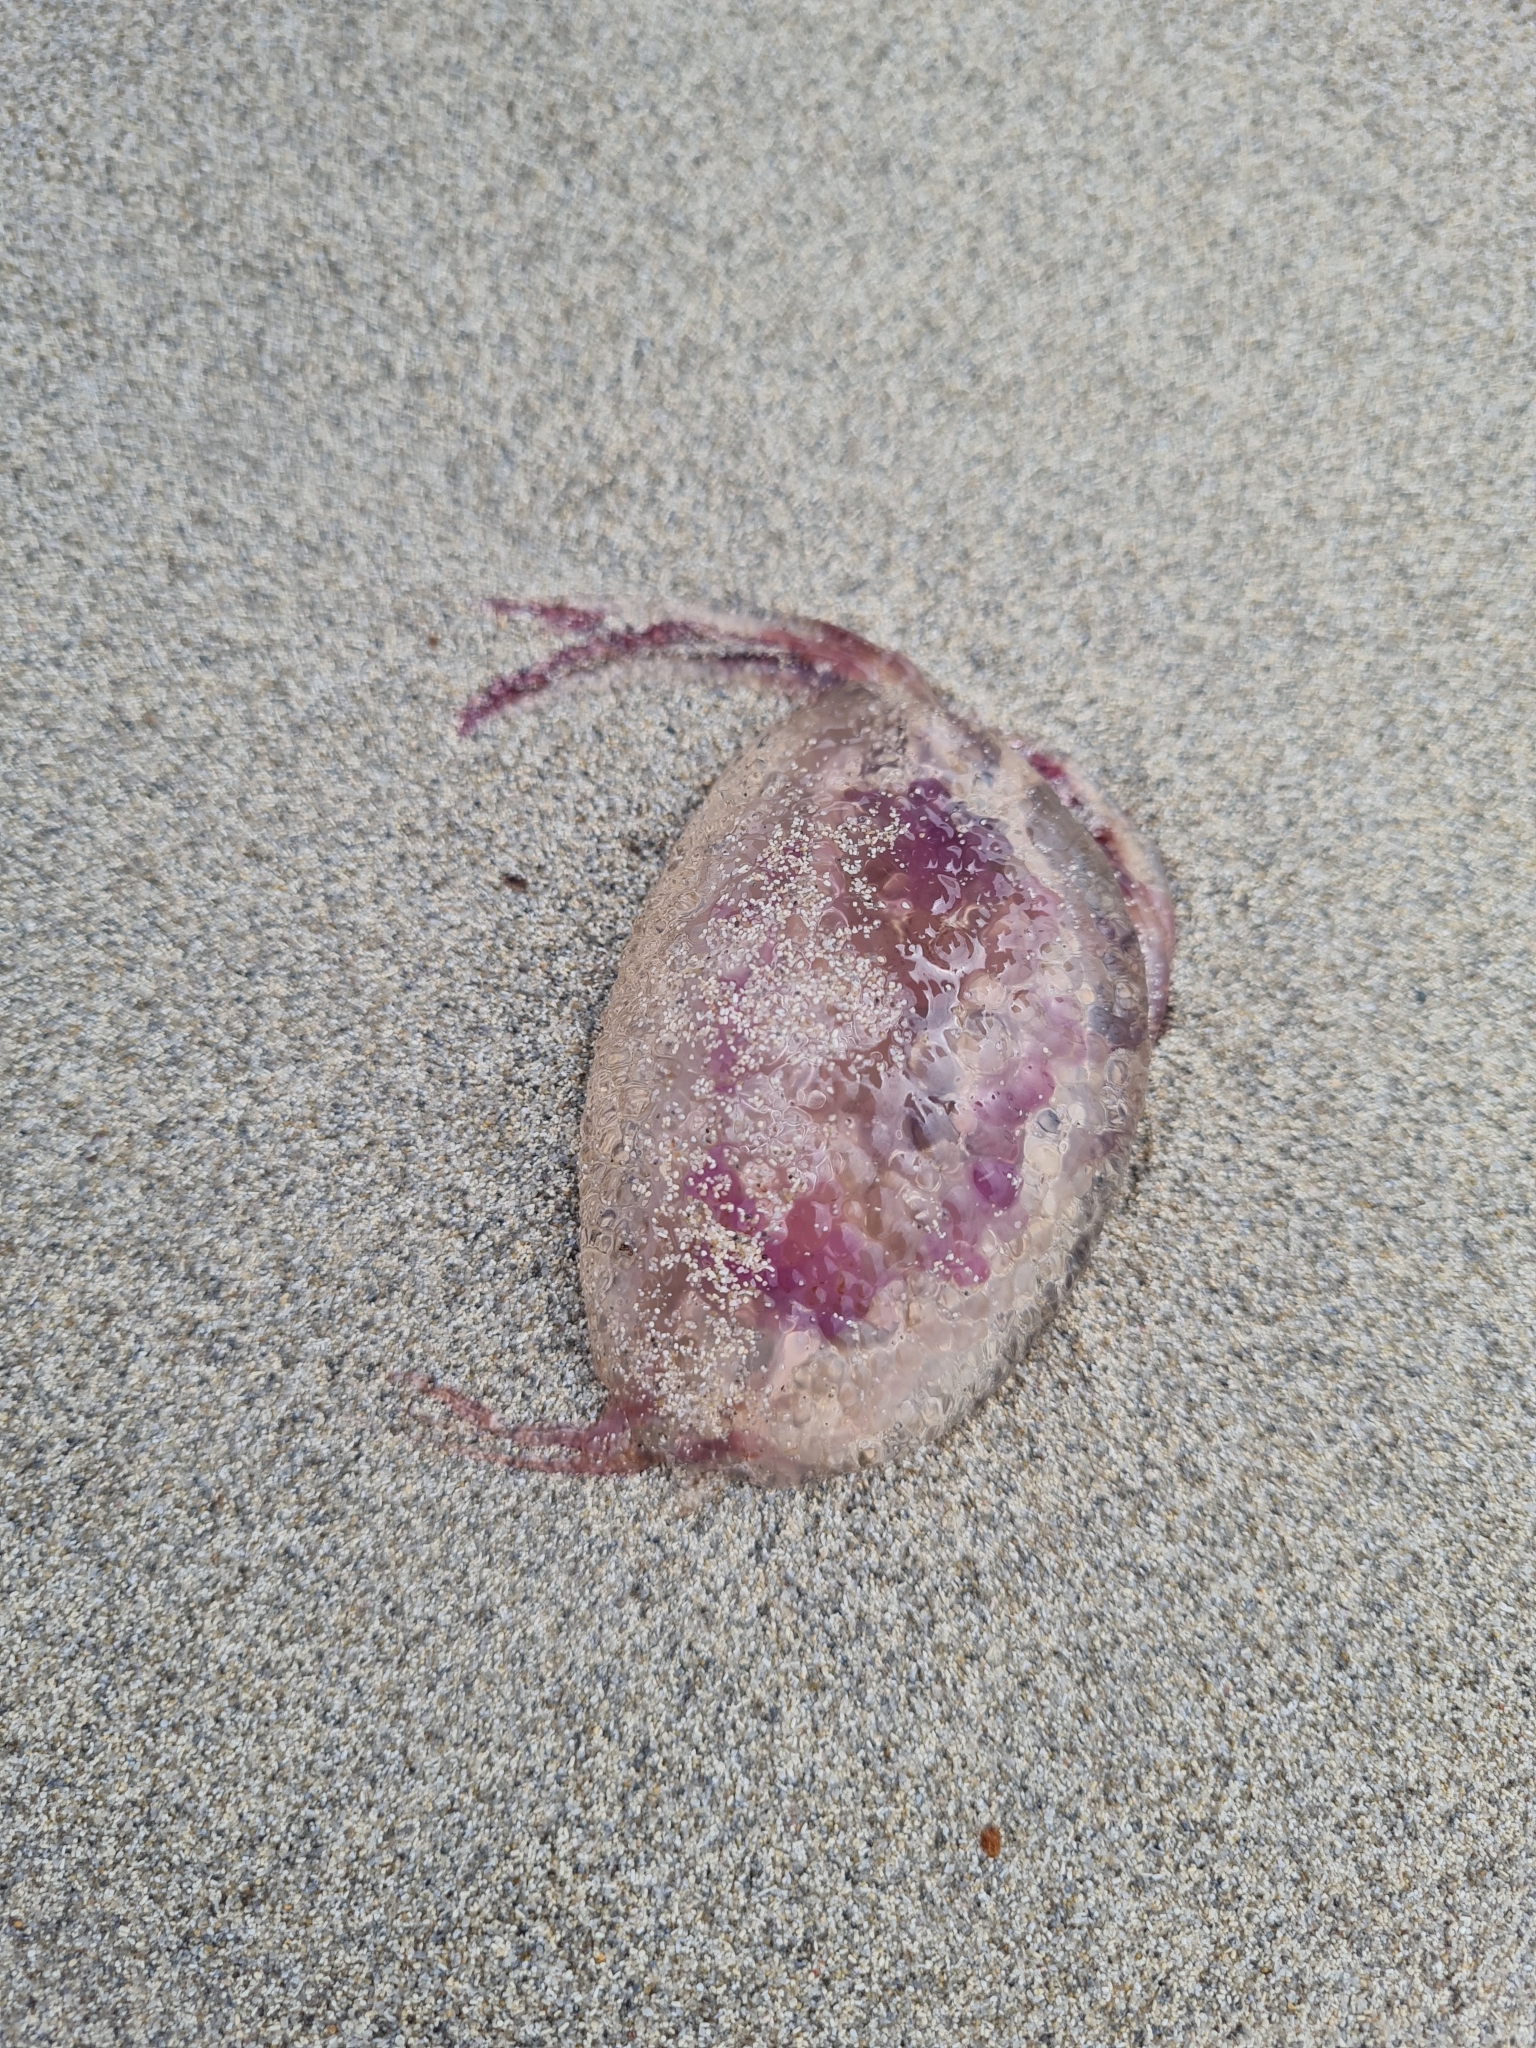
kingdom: Animalia
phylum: Cnidaria
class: Scyphozoa
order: Semaeostomeae
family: Pelagiidae
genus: Pelagia
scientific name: Pelagia noctiluca
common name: Mauve stinger
